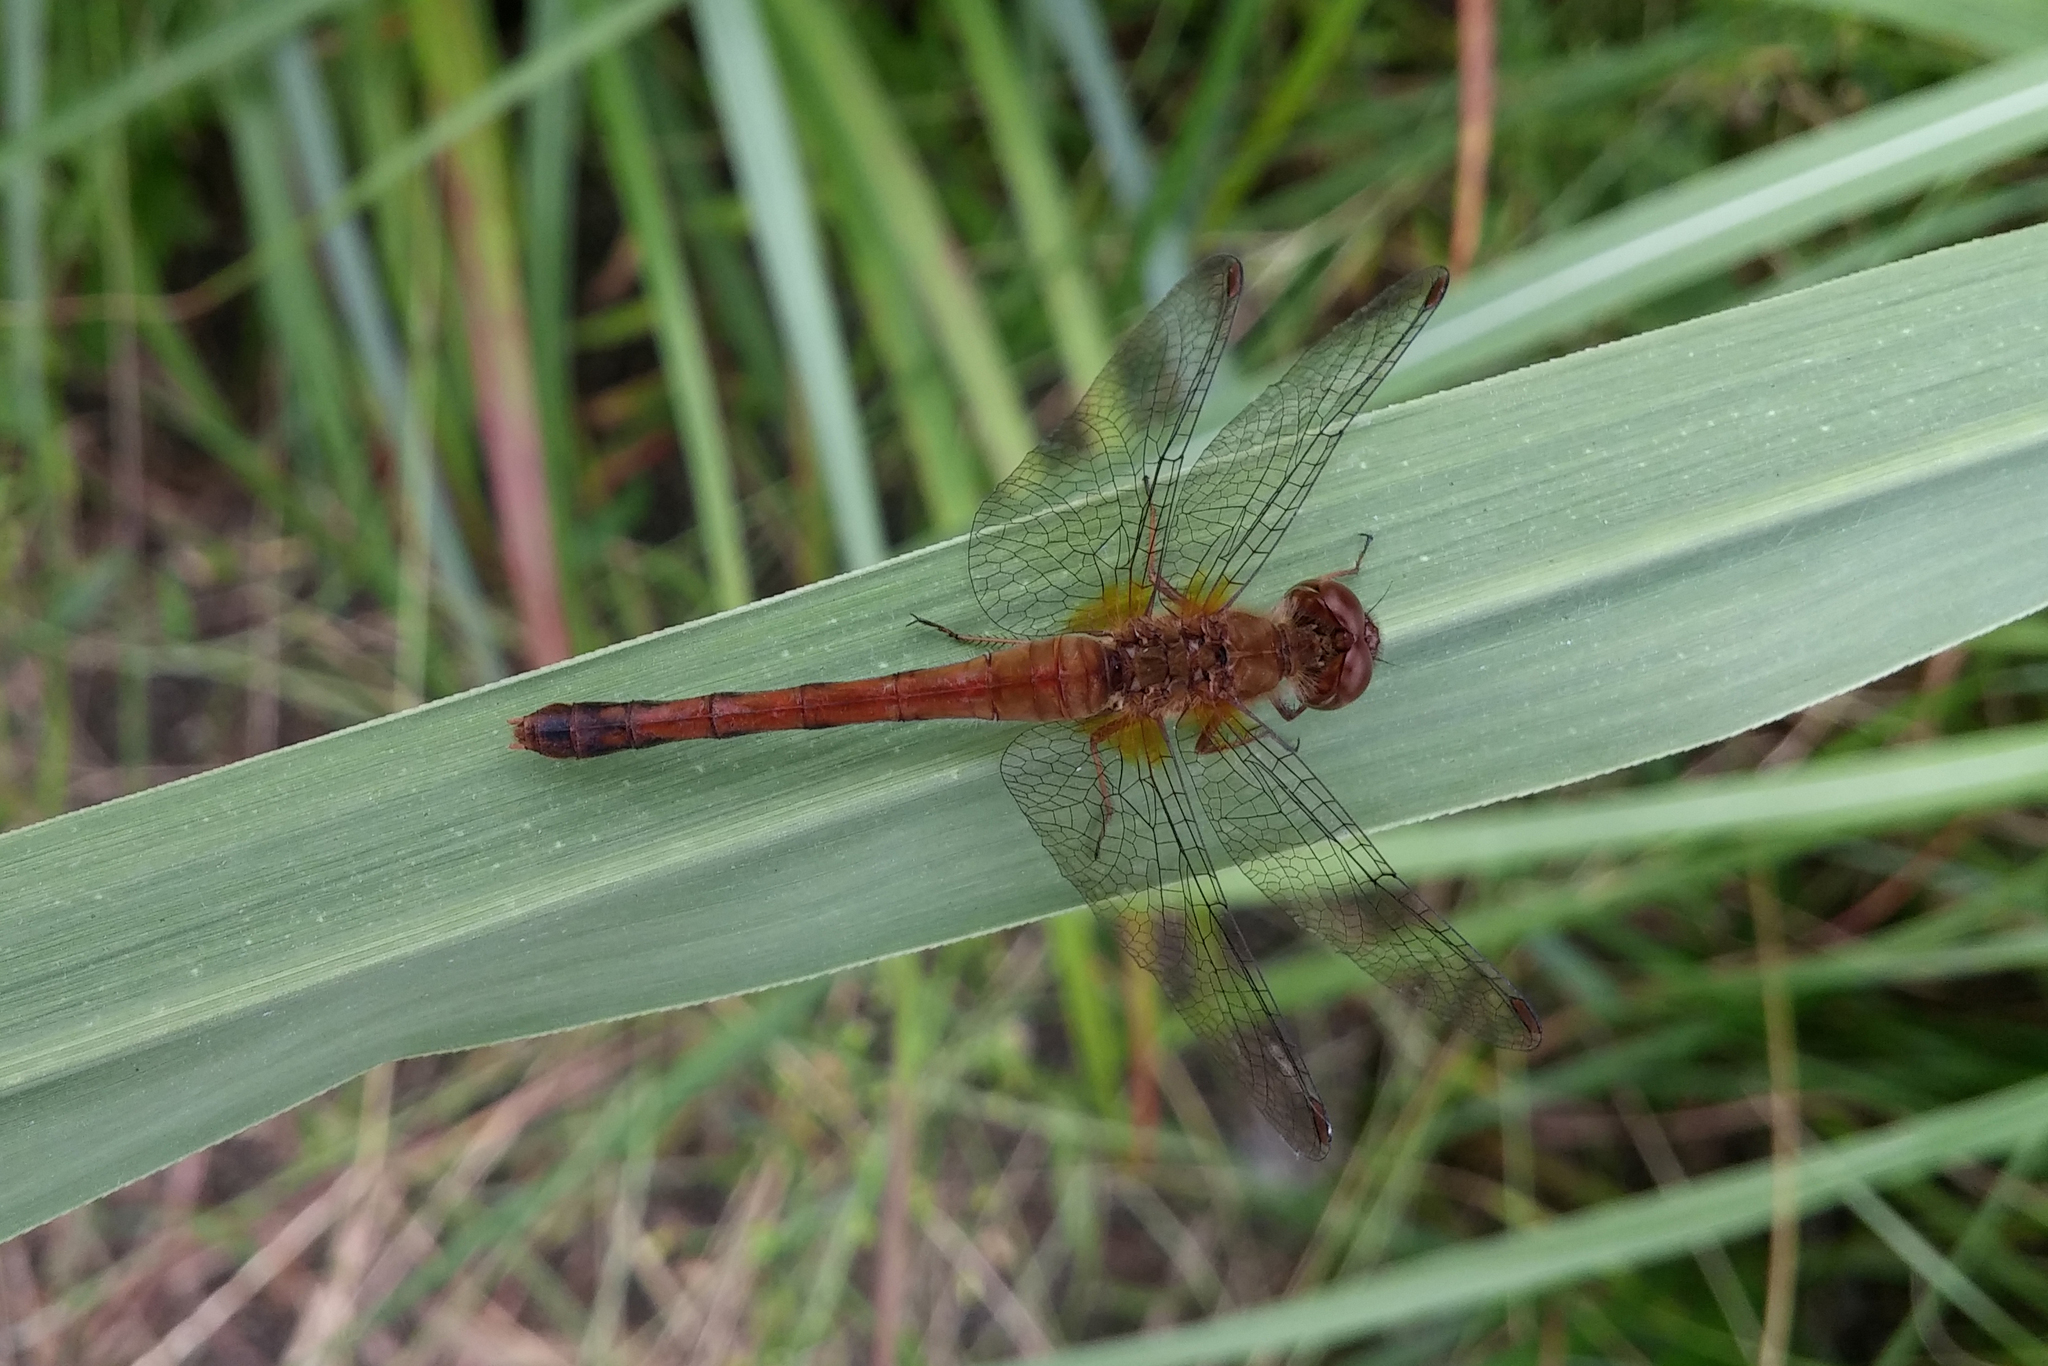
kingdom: Animalia
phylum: Arthropoda
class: Insecta
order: Odonata
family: Libellulidae
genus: Sympetrum
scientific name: Sympetrum vicinum
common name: Autumn meadowhawk
